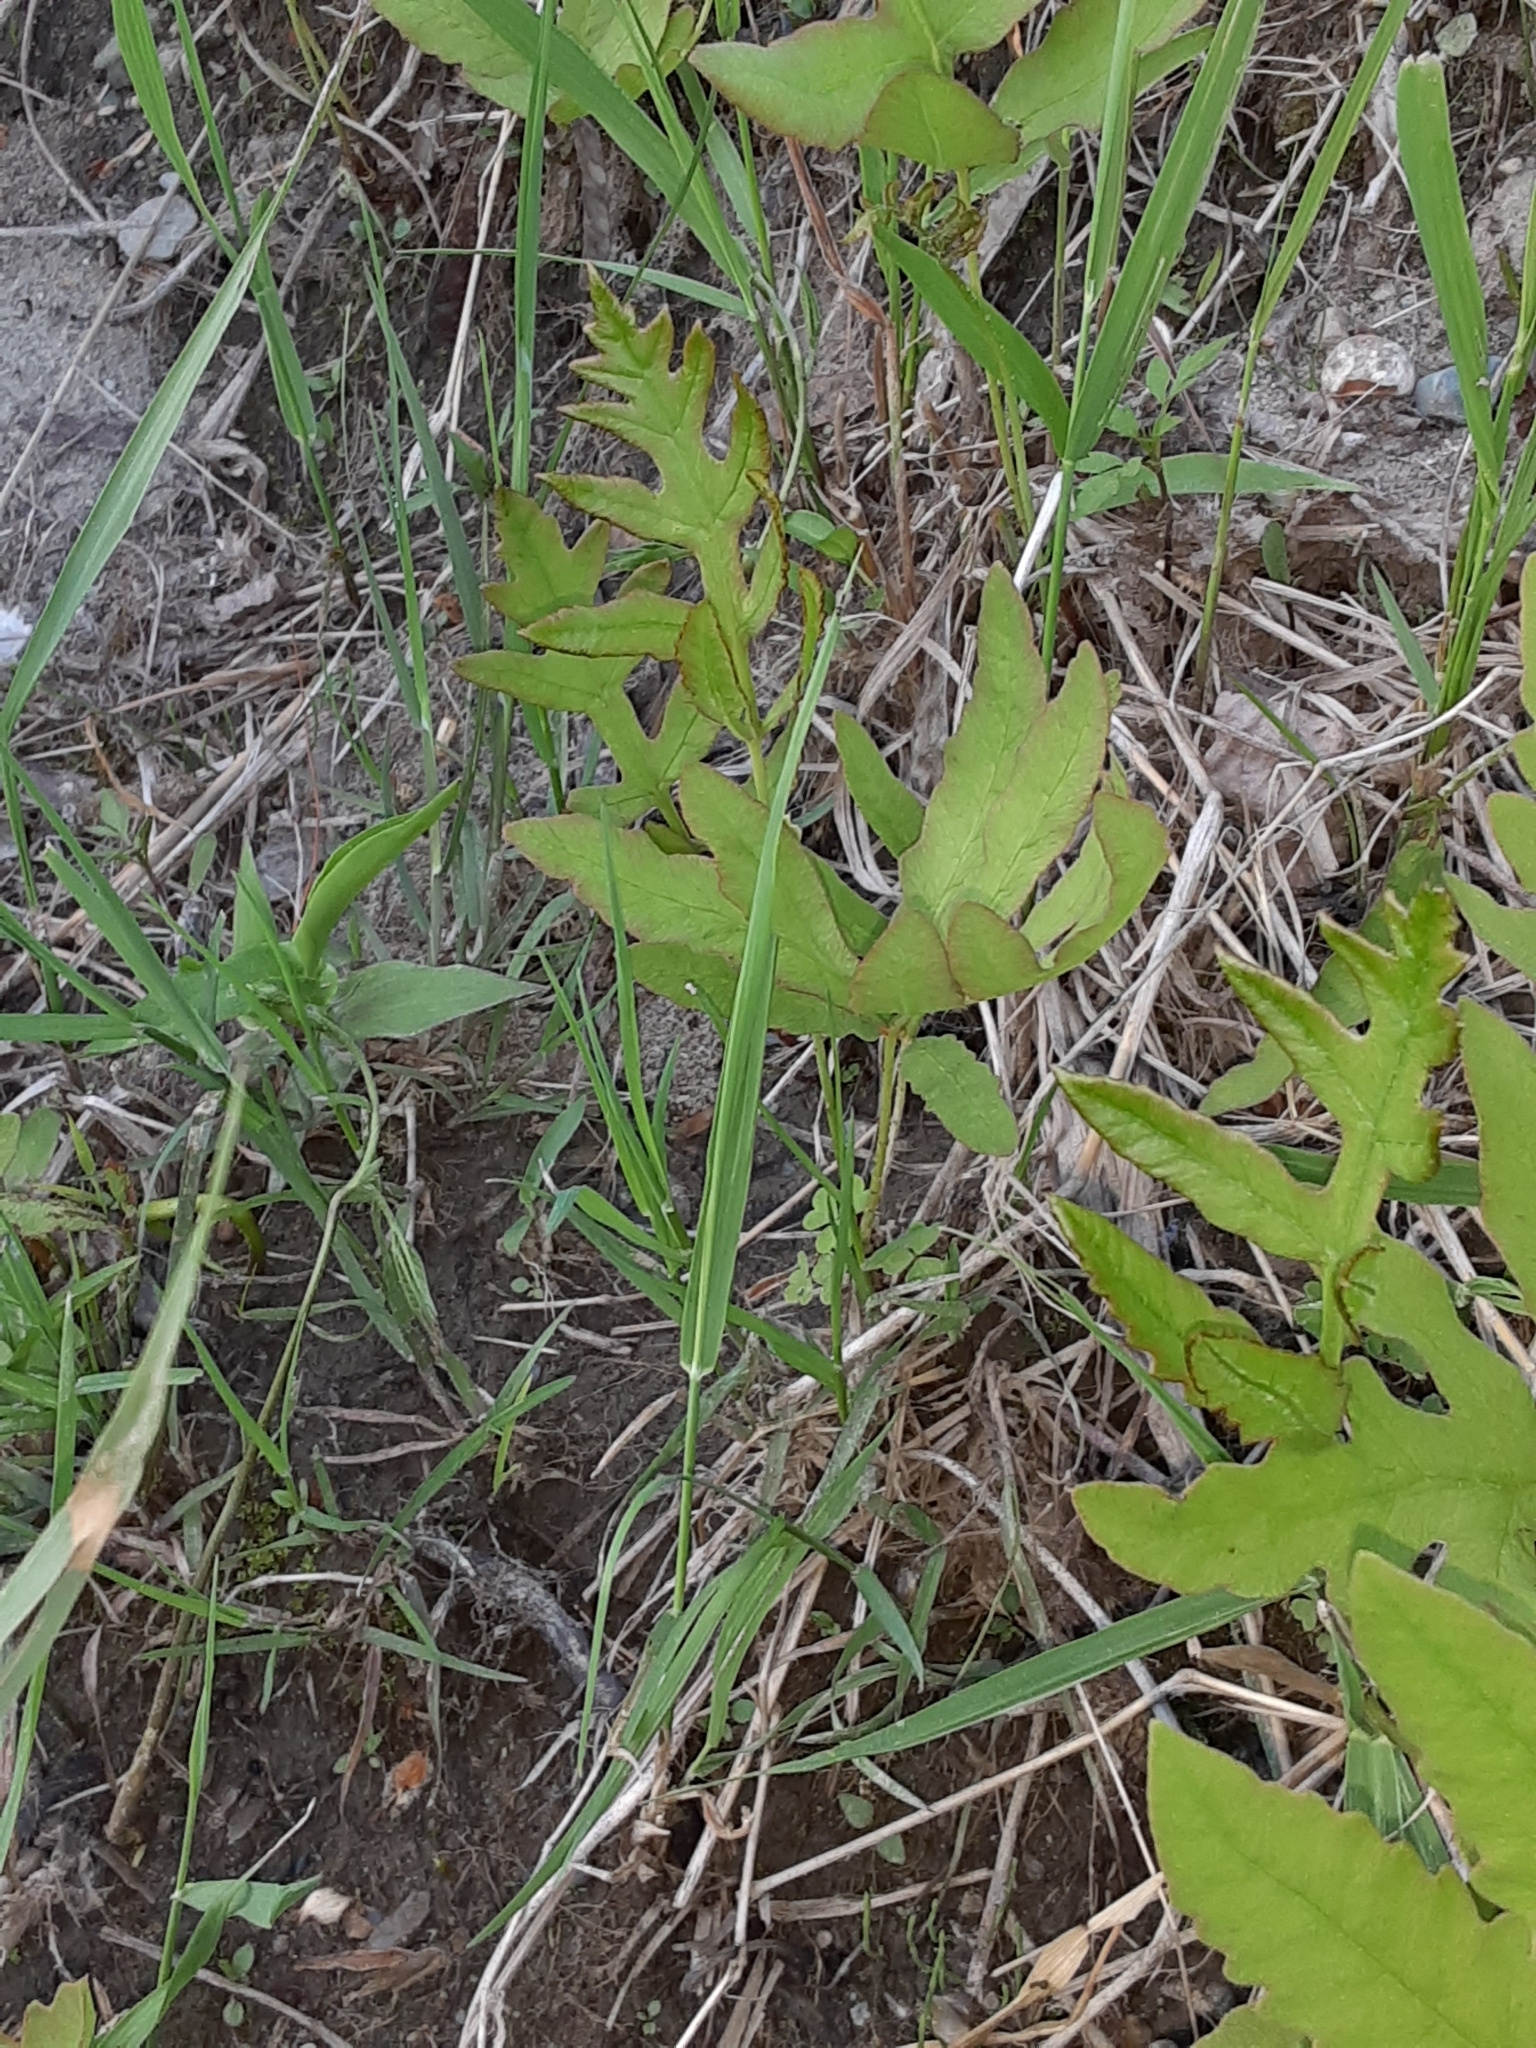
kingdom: Plantae
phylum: Tracheophyta
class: Polypodiopsida
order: Polypodiales
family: Onocleaceae
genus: Onoclea
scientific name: Onoclea sensibilis
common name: Sensitive fern
